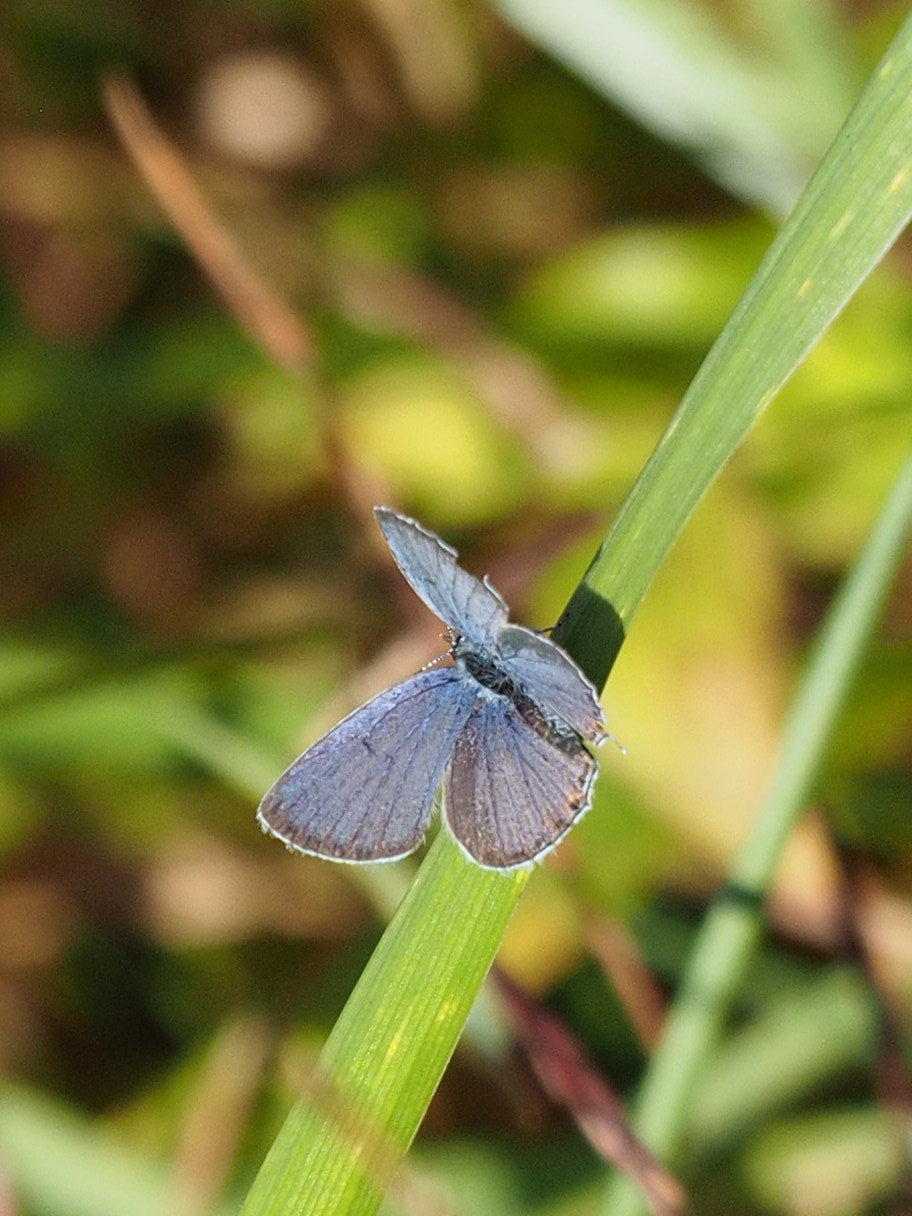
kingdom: Animalia
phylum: Arthropoda
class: Insecta
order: Lepidoptera
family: Lycaenidae
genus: Elkalyce
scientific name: Elkalyce comyntas
